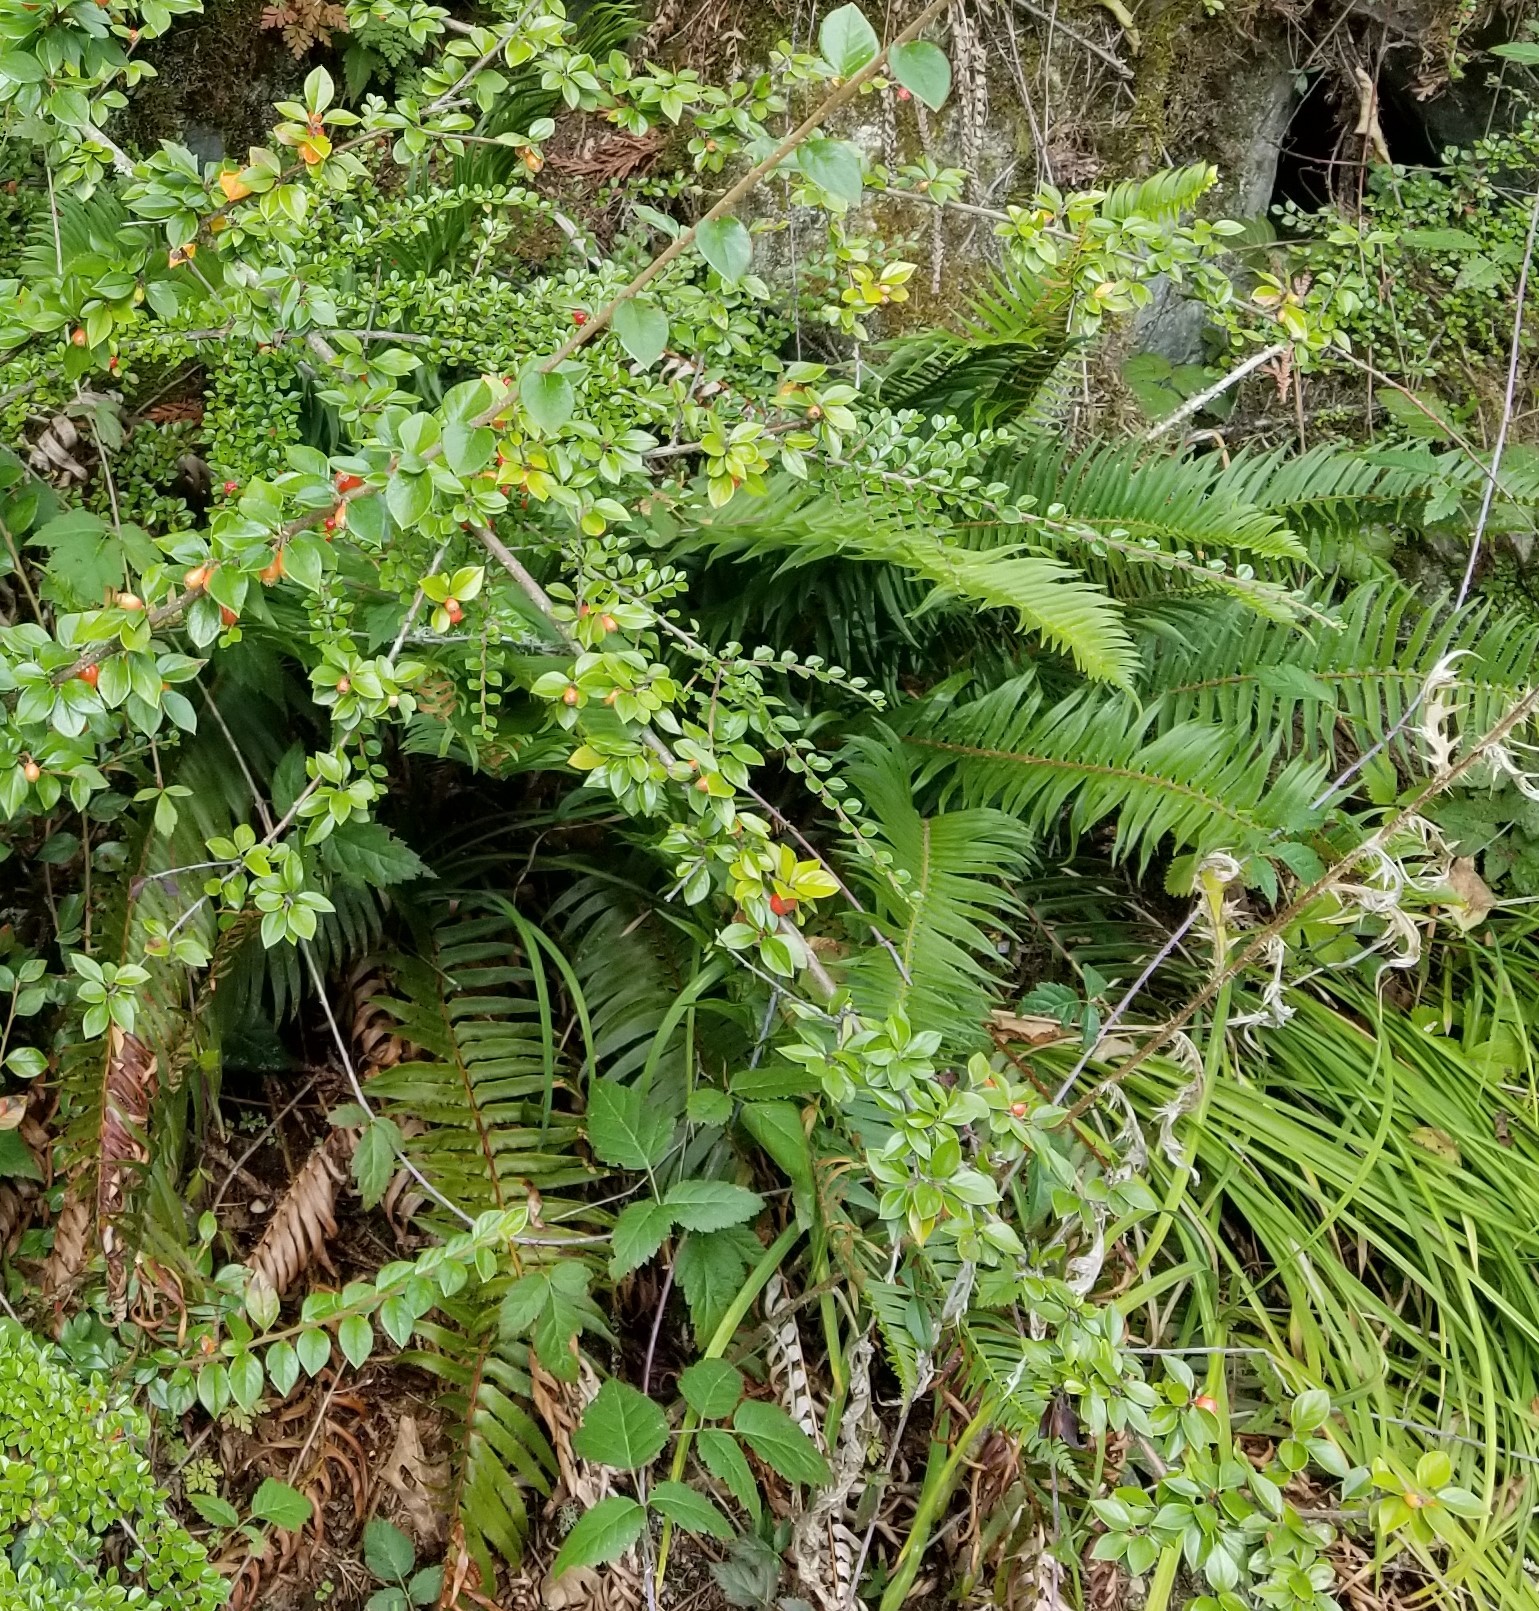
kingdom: Plantae
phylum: Tracheophyta
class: Polypodiopsida
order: Polypodiales
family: Dryopteridaceae
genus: Polystichum
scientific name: Polystichum munitum
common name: Western sword-fern
